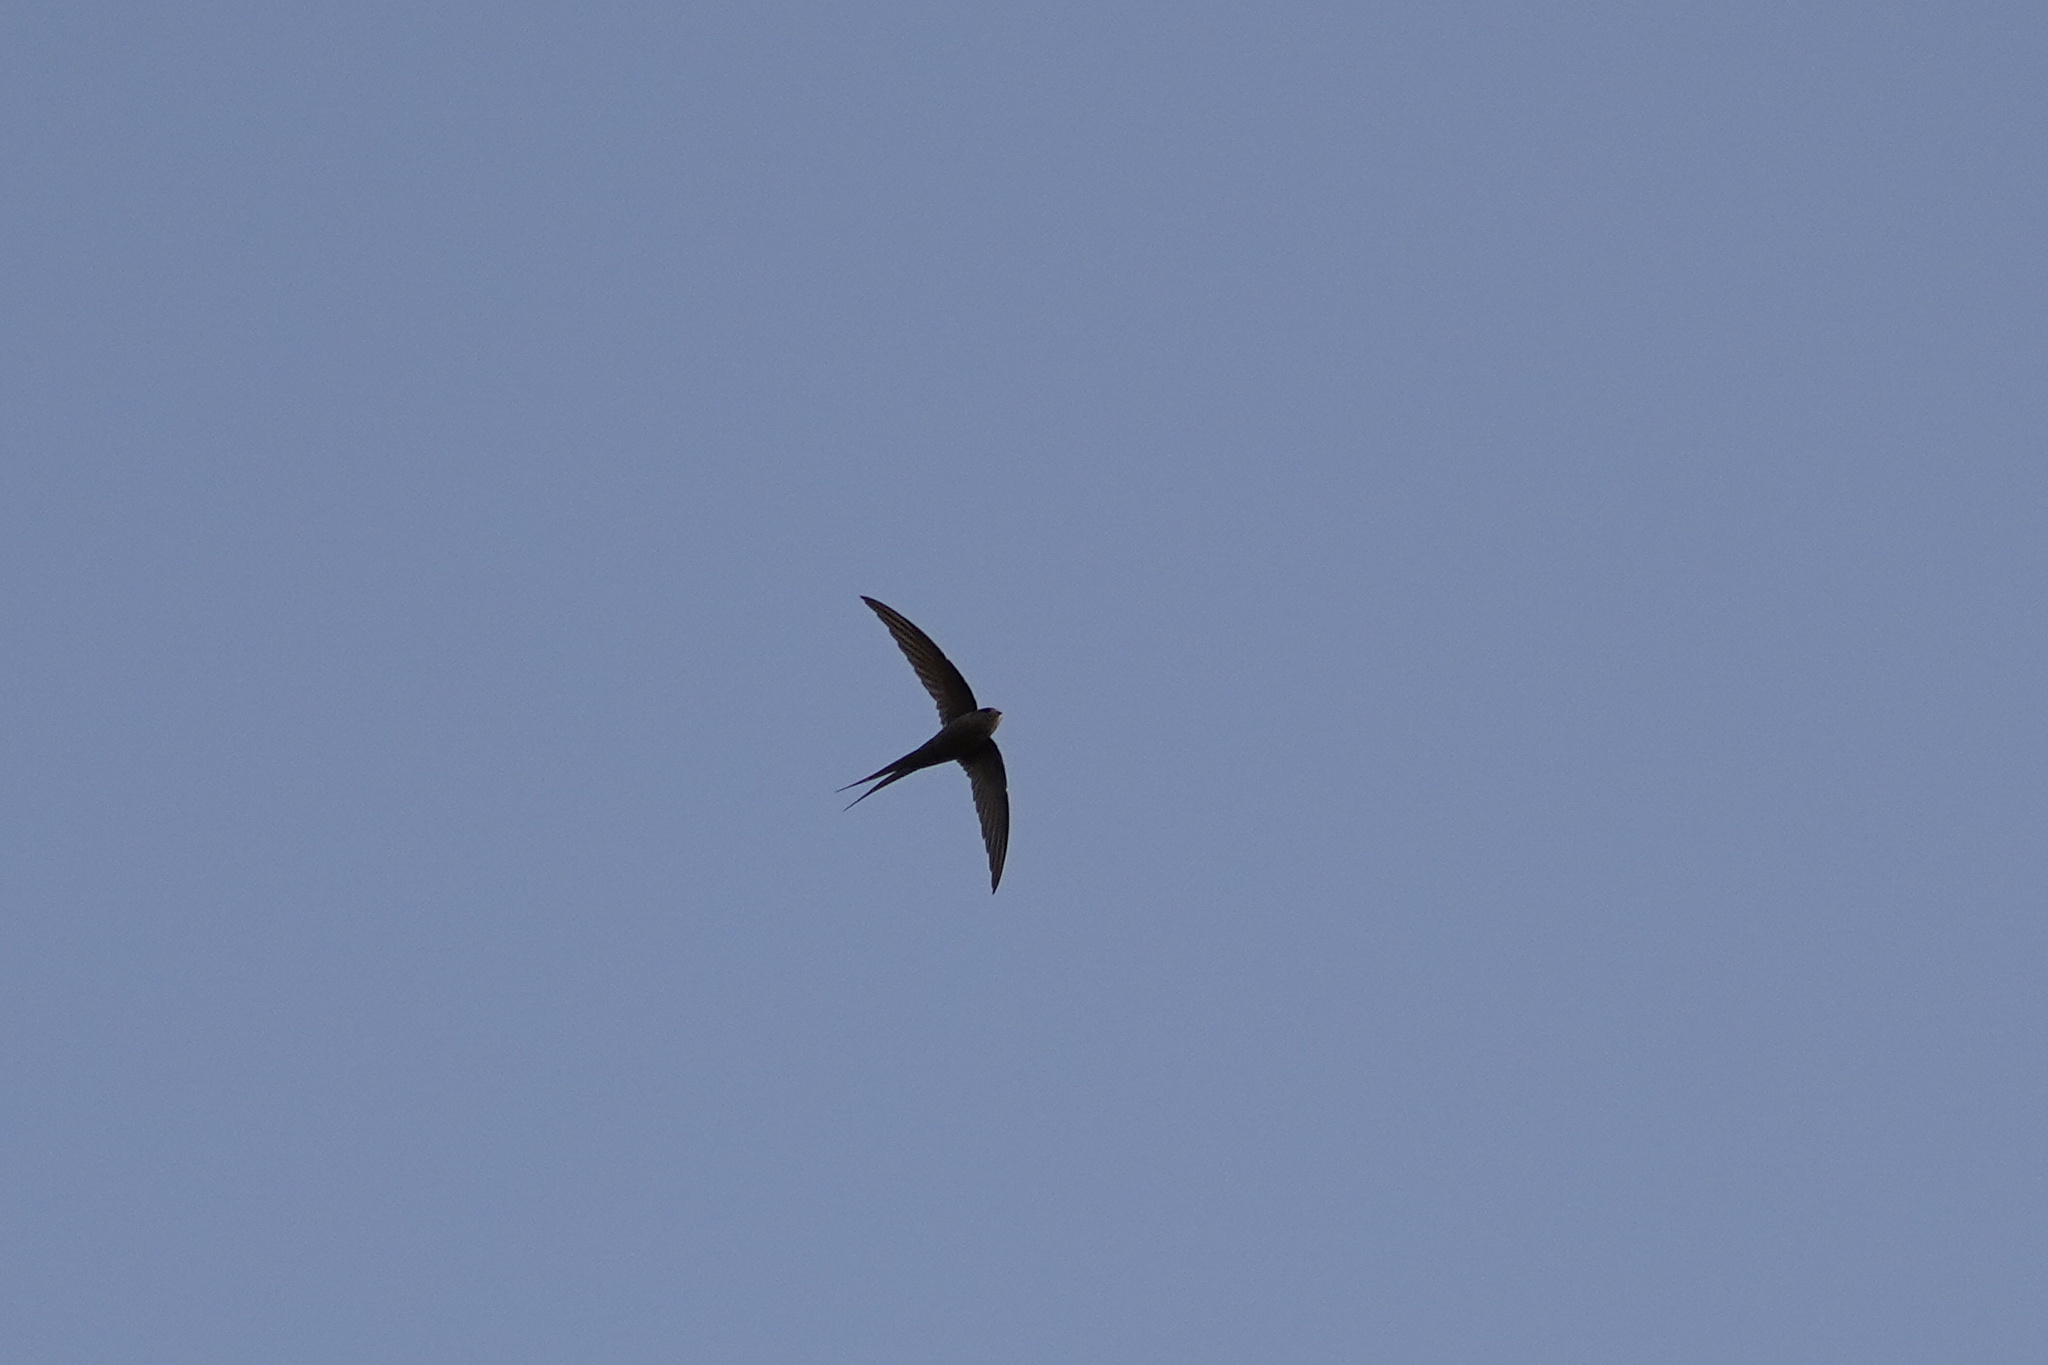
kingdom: Animalia
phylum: Chordata
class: Aves
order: Apodiformes
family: Apodidae
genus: Cypsiurus
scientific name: Cypsiurus parvus
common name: African palm swift
